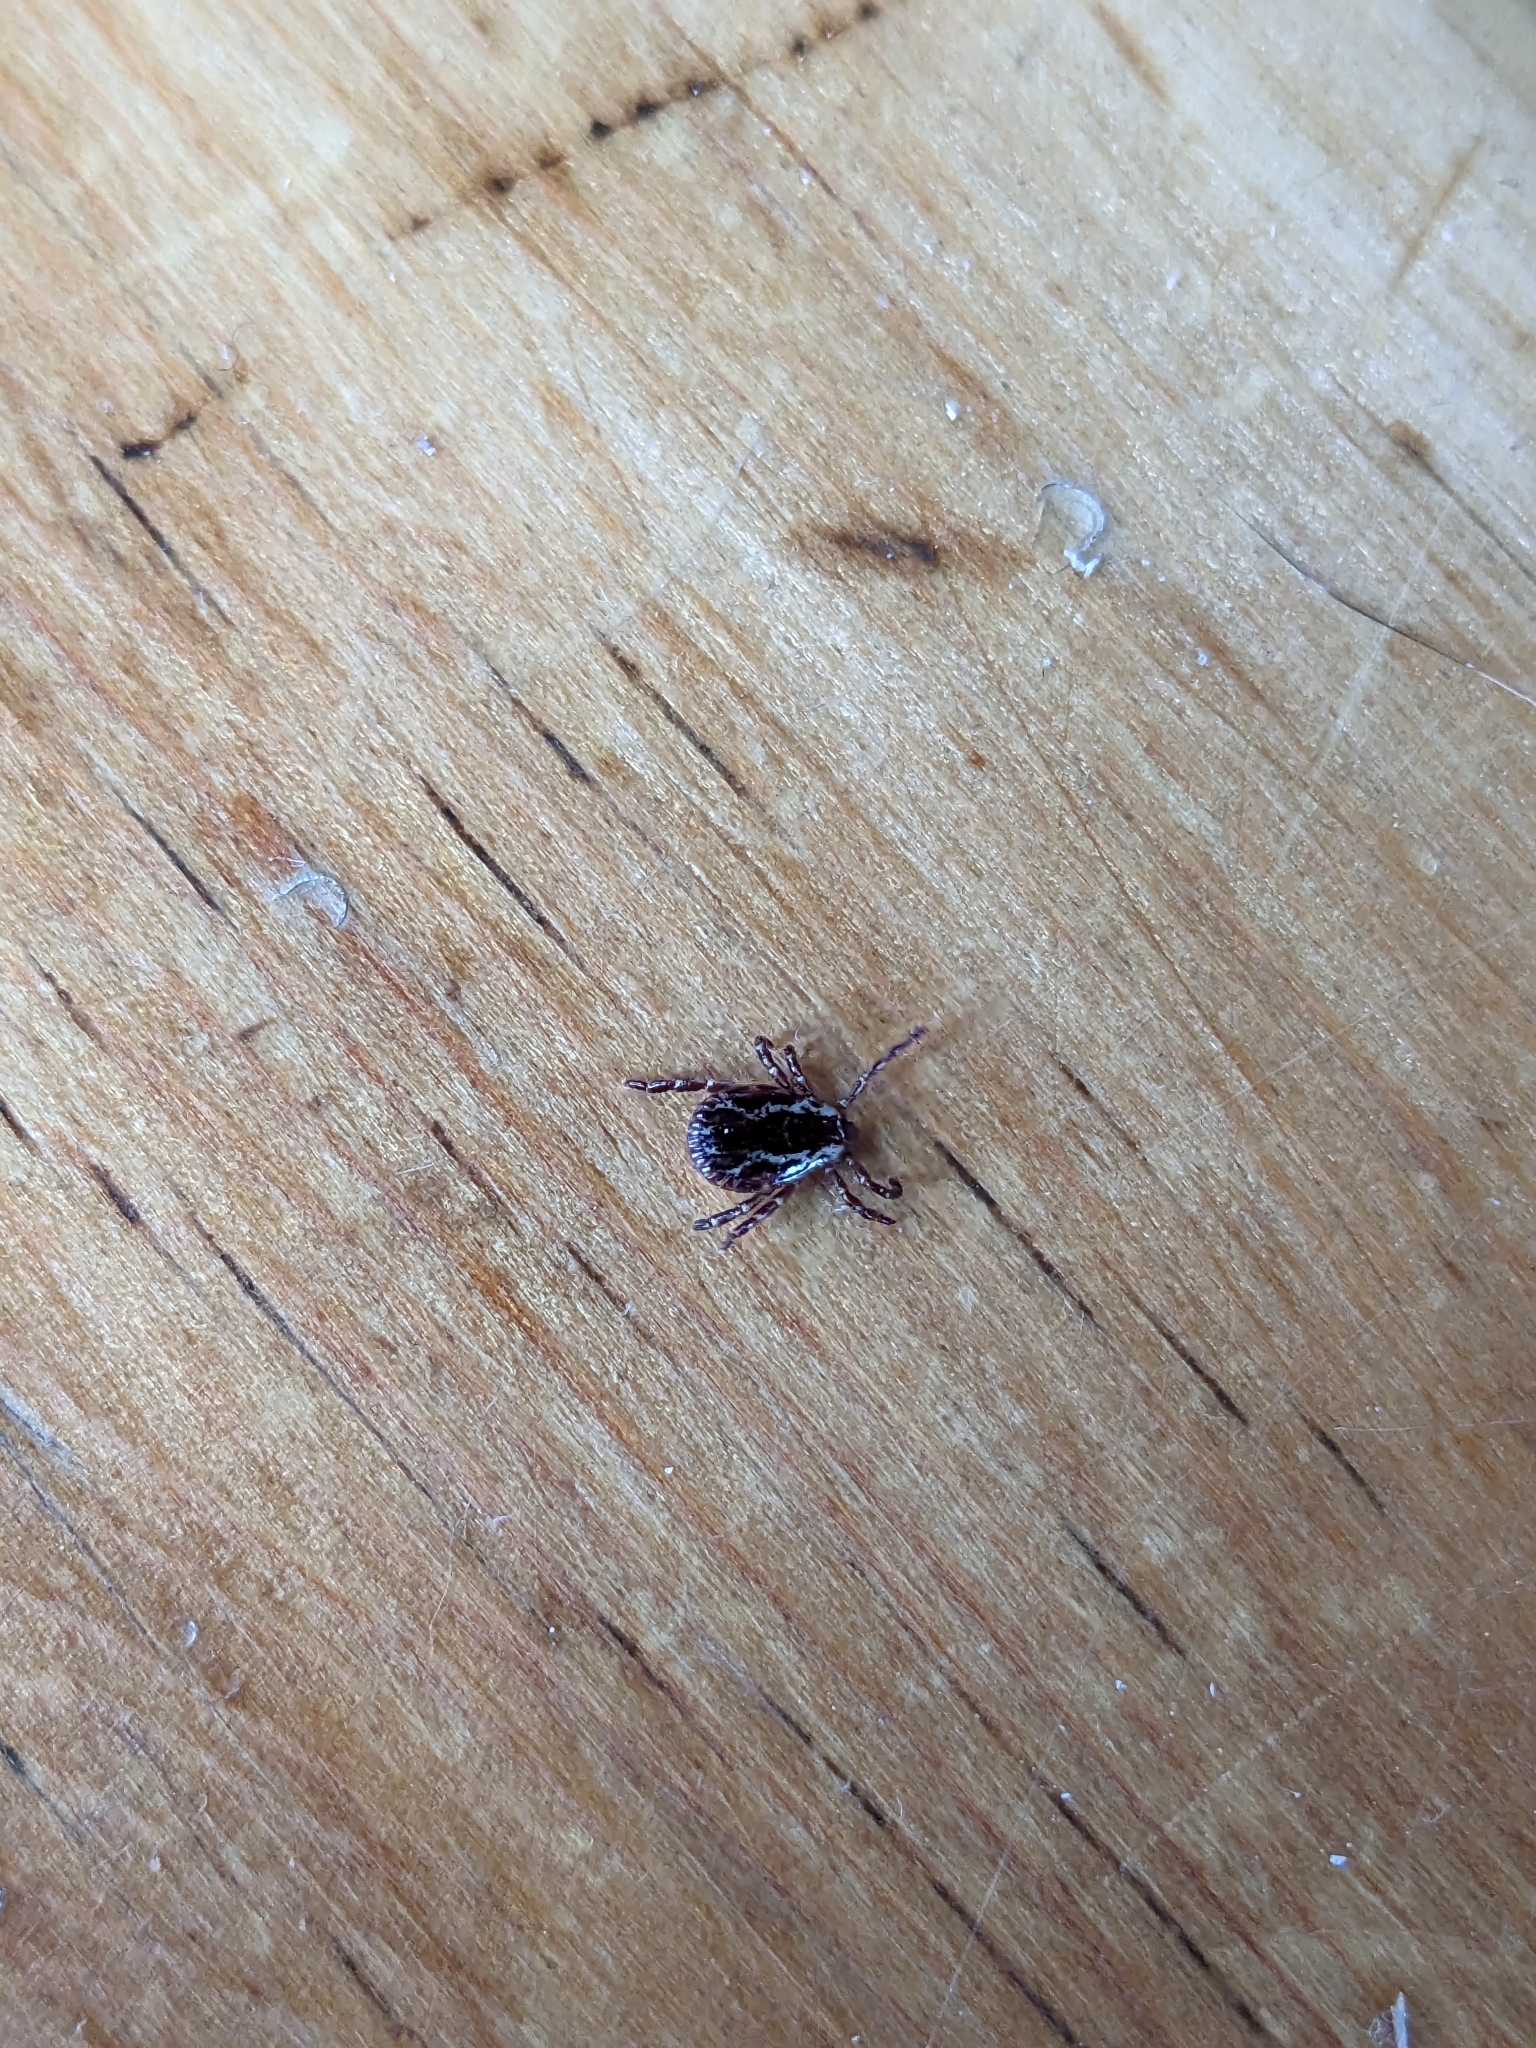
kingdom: Animalia
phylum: Arthropoda
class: Arachnida
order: Ixodida
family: Ixodidae
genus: Dermacentor
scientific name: Dermacentor variabilis
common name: American dog tick
